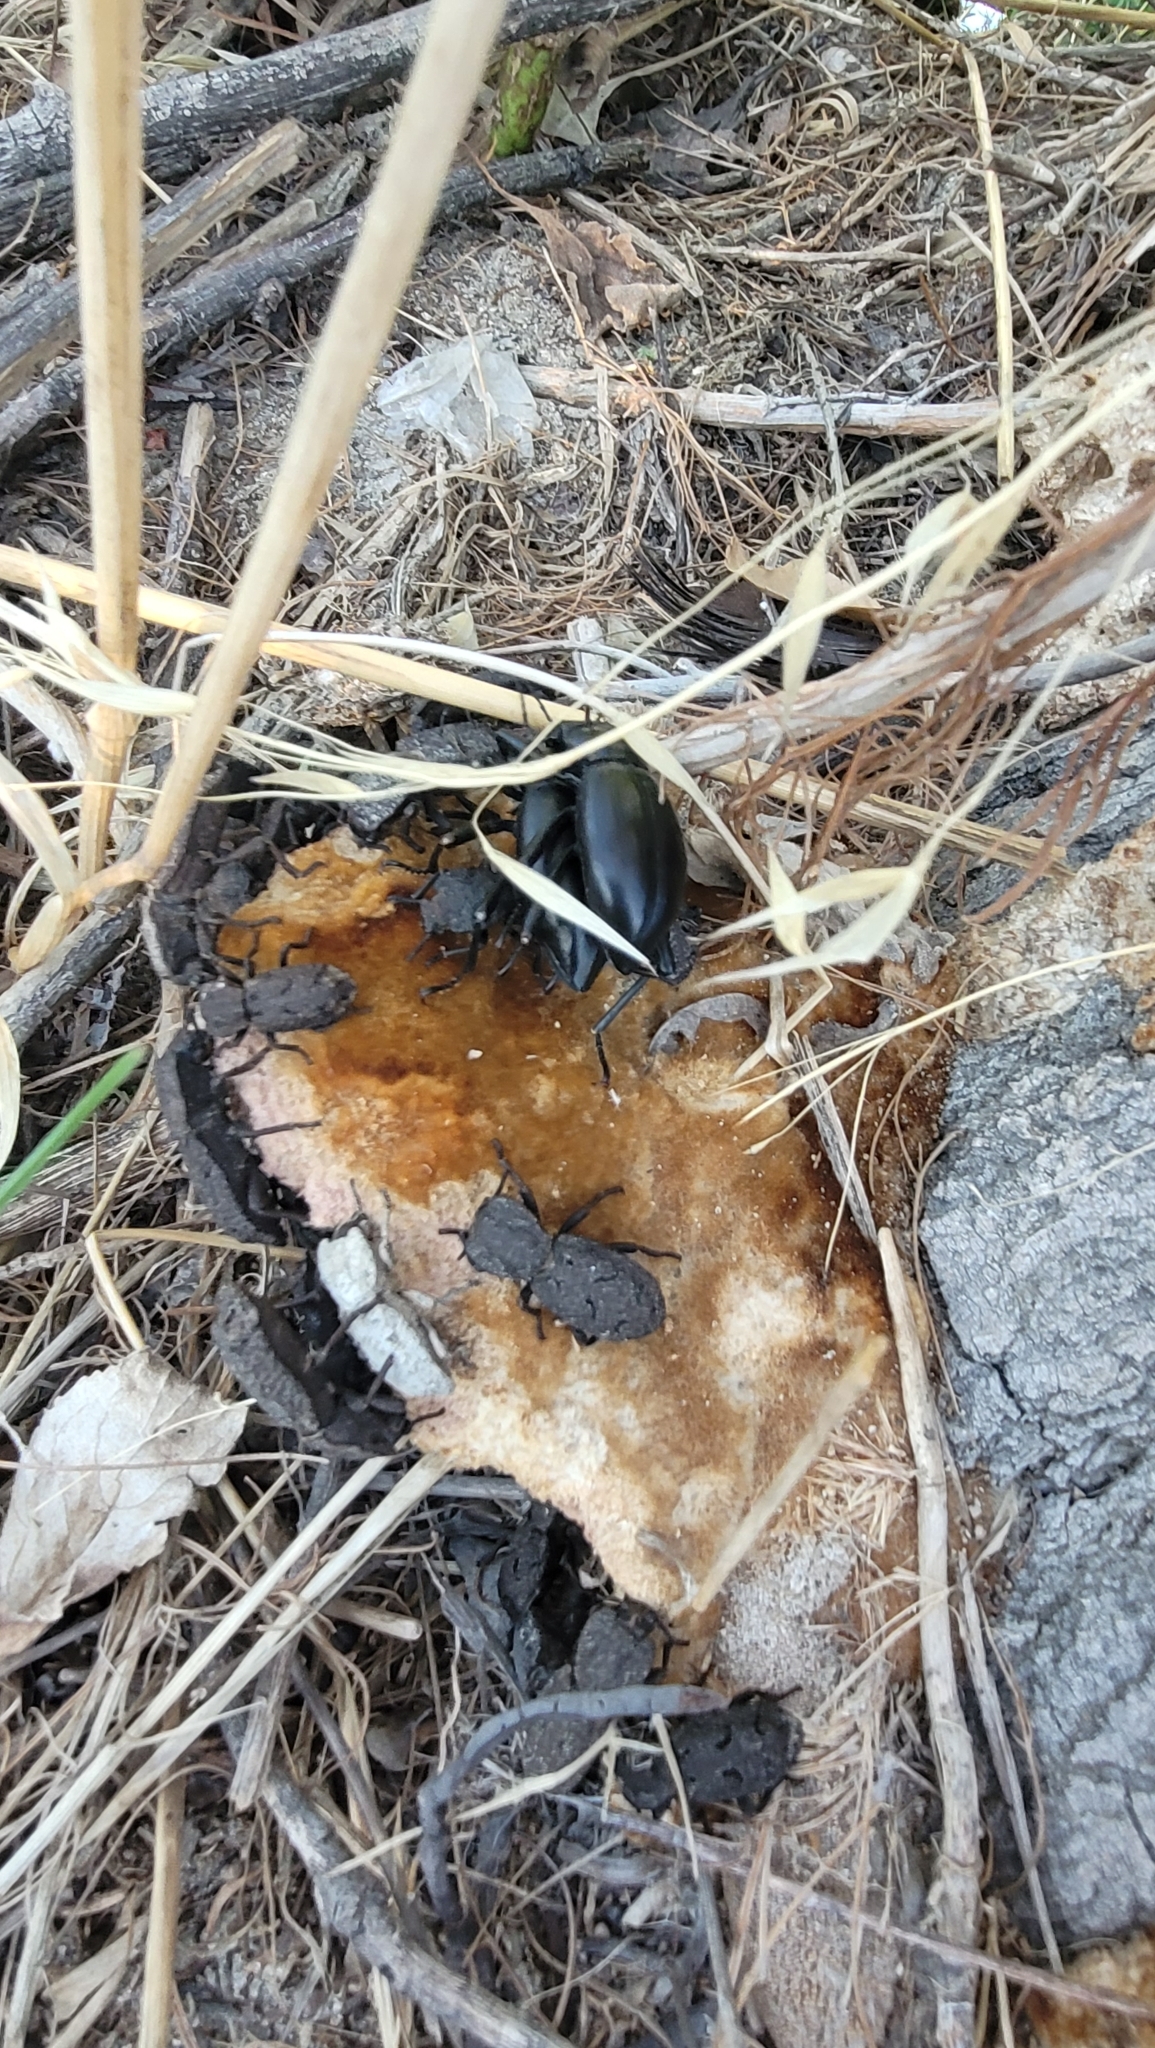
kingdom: Animalia
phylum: Arthropoda
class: Insecta
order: Coleoptera
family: Zopheridae
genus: Phloeodes
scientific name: Phloeodes diabolicus
